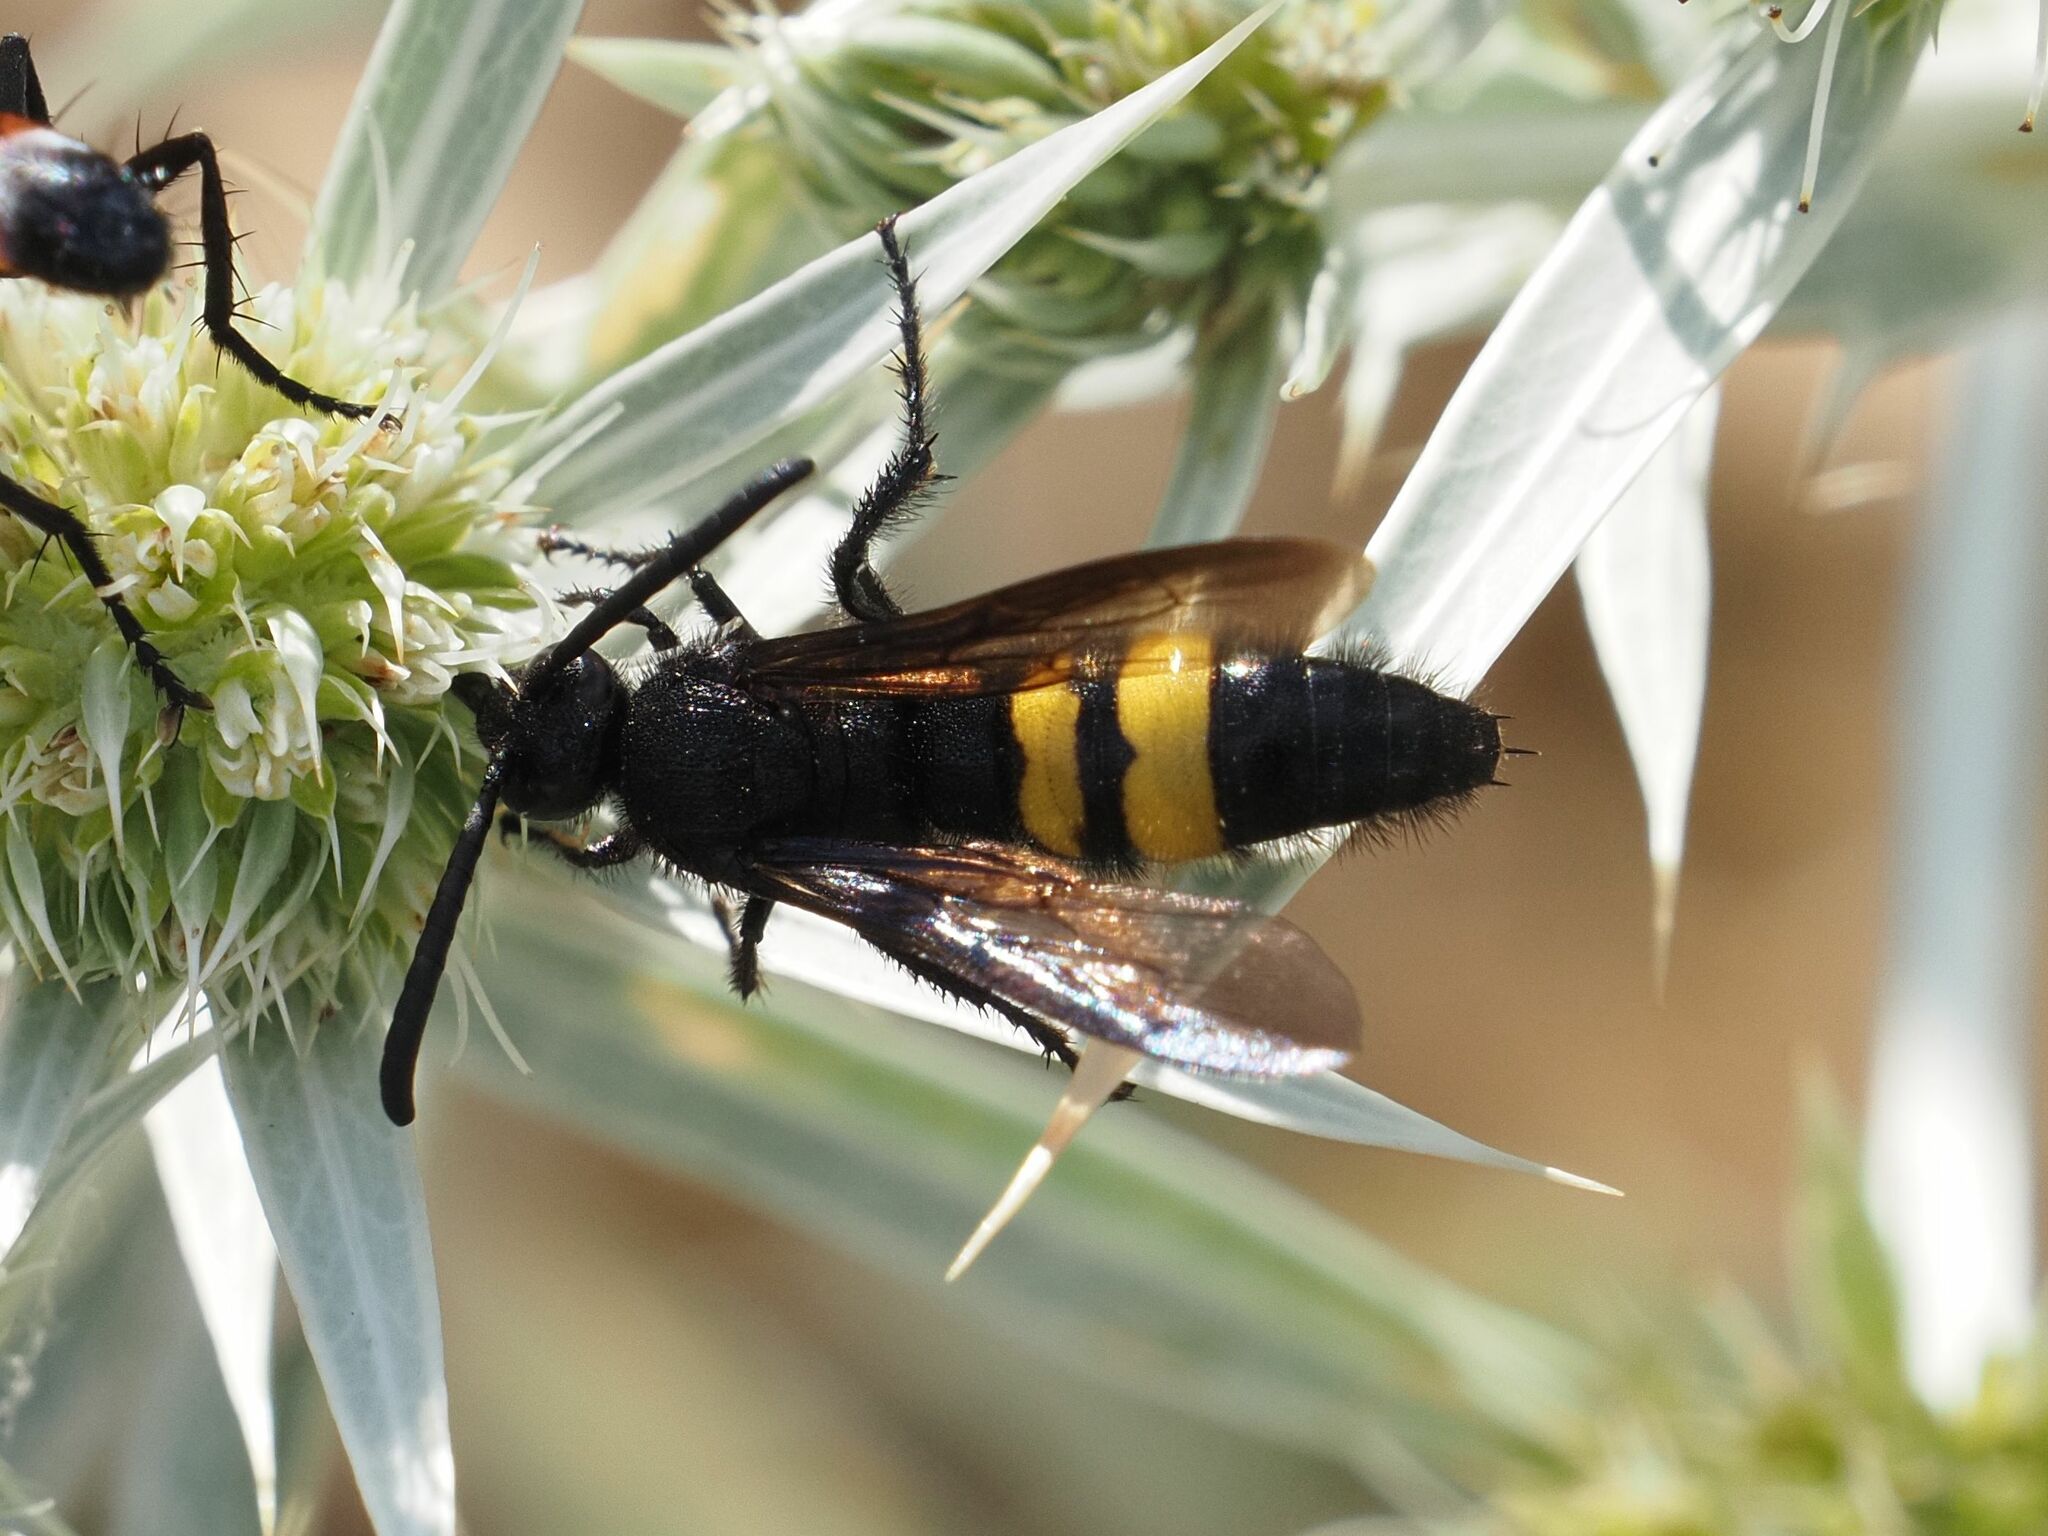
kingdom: Animalia
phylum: Arthropoda
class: Insecta
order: Hymenoptera
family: Scoliidae
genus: Scolia
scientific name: Scolia hirta
